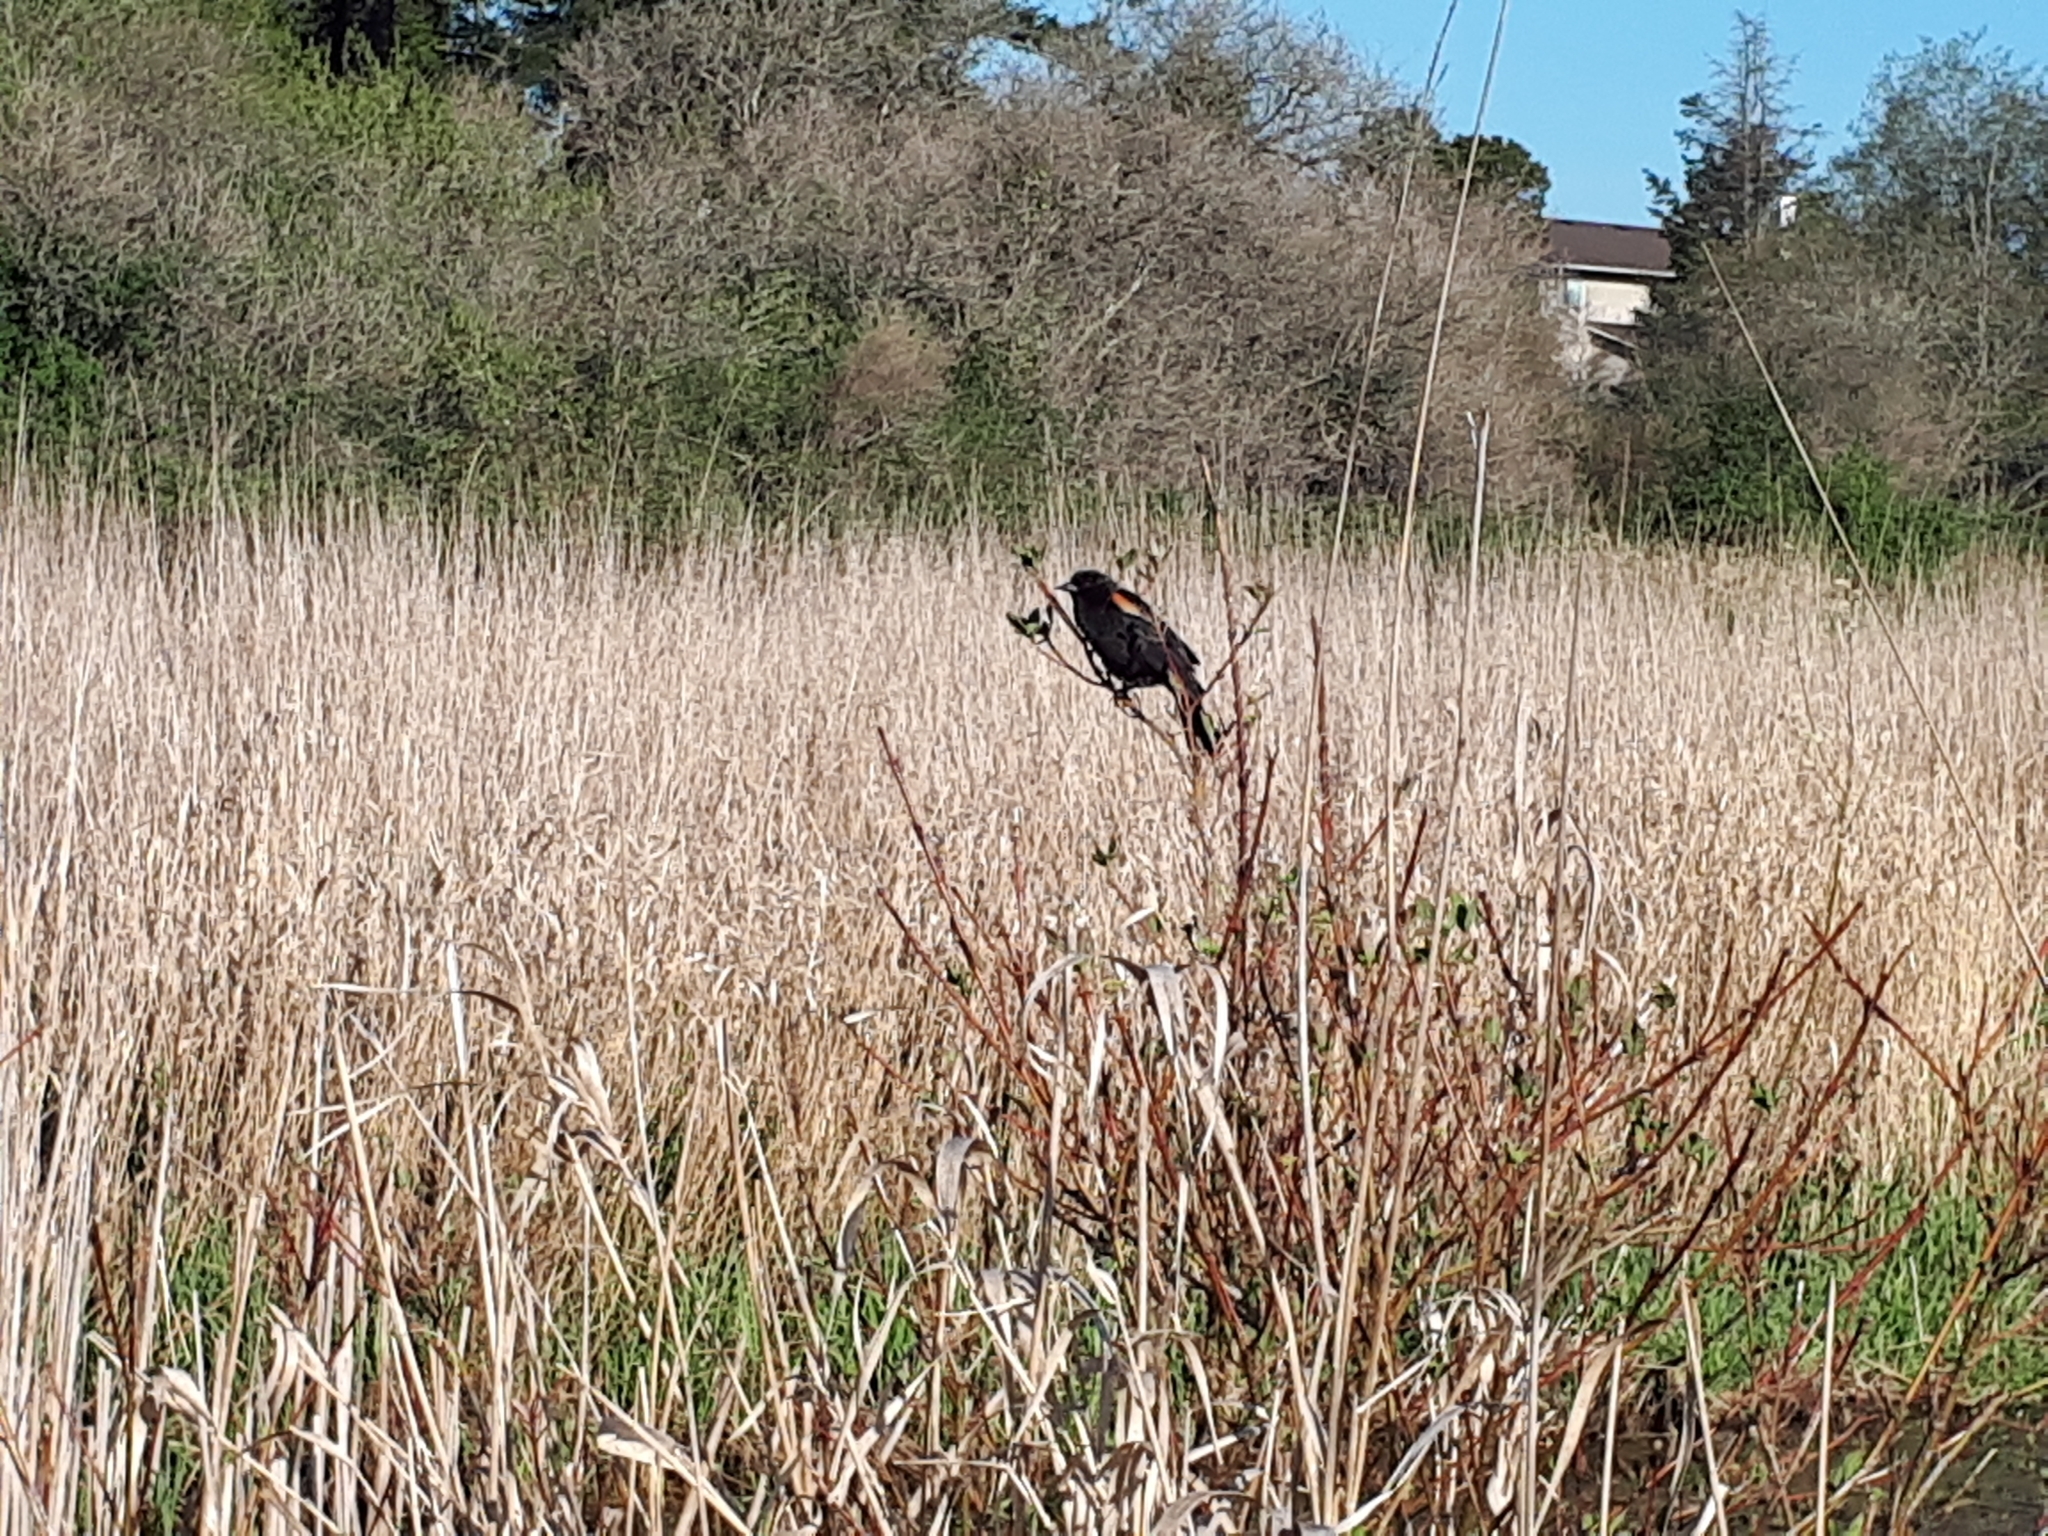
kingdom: Animalia
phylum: Chordata
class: Aves
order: Passeriformes
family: Icteridae
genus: Agelaius
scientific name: Agelaius phoeniceus
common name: Red-winged blackbird
